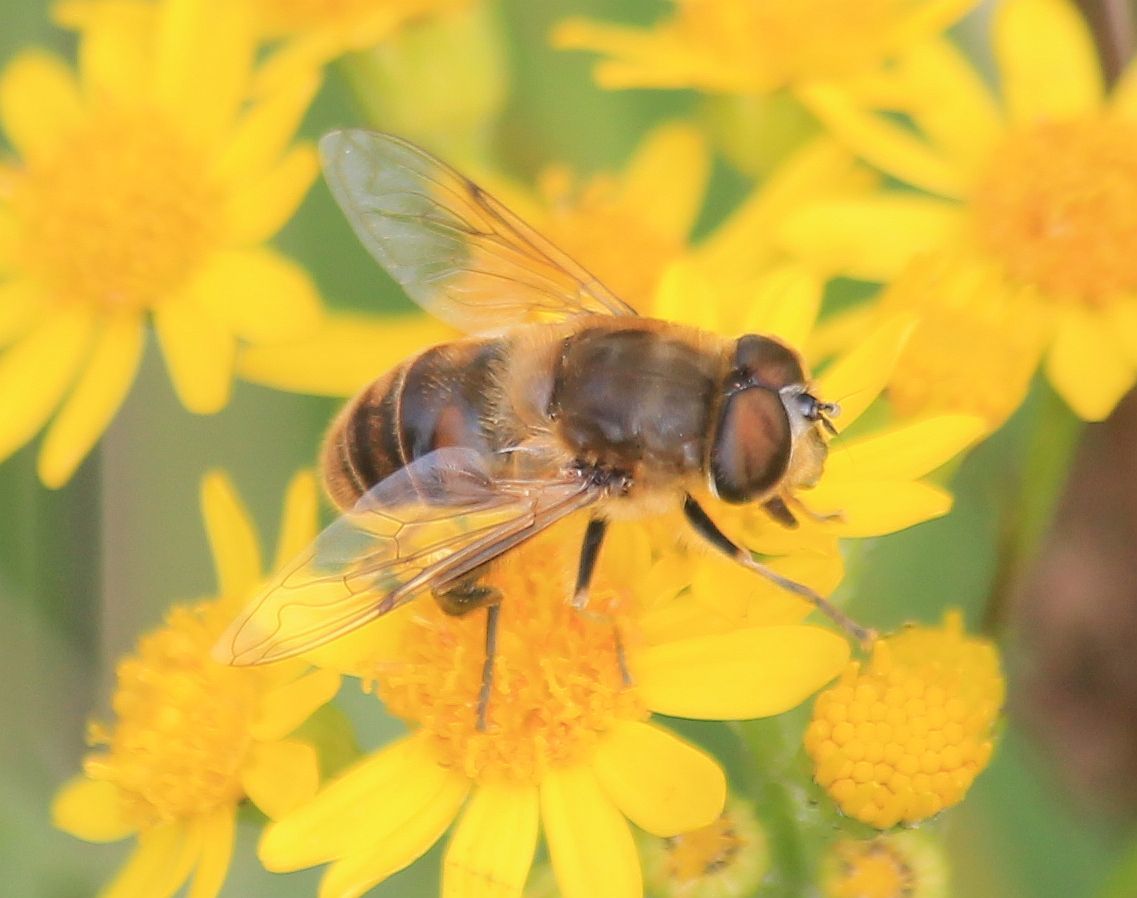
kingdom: Animalia
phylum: Arthropoda
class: Insecta
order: Diptera
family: Syrphidae
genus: Eristalis
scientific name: Eristalis tenax
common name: Drone fly
